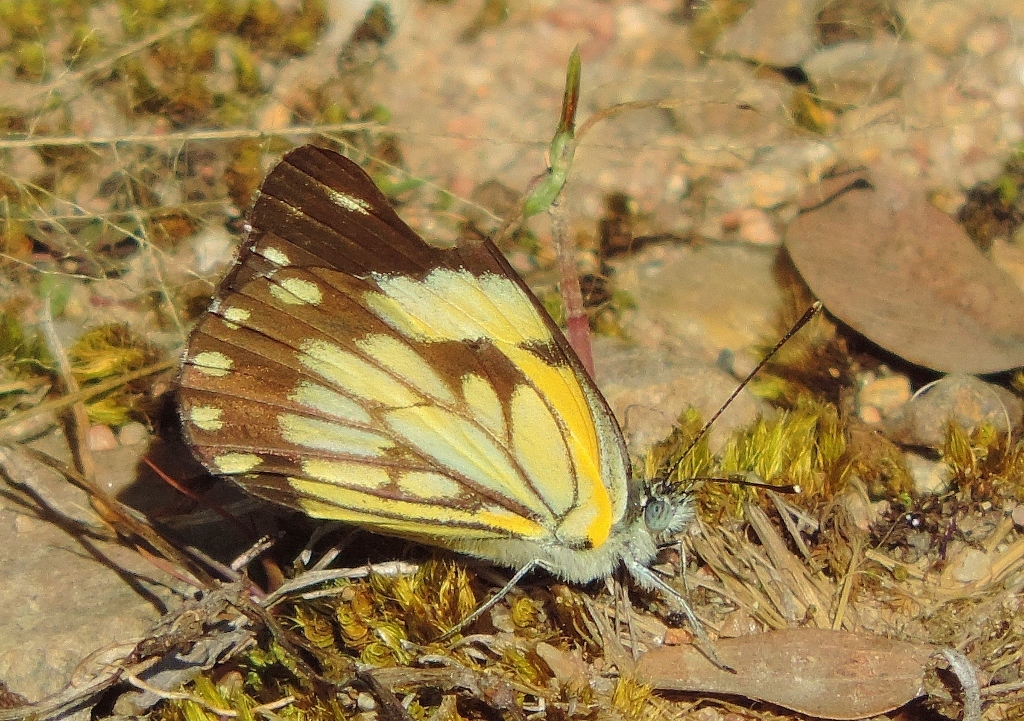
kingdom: Animalia
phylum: Arthropoda
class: Insecta
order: Lepidoptera
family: Pieridae
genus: Belenois
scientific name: Belenois creona
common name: African caper white
